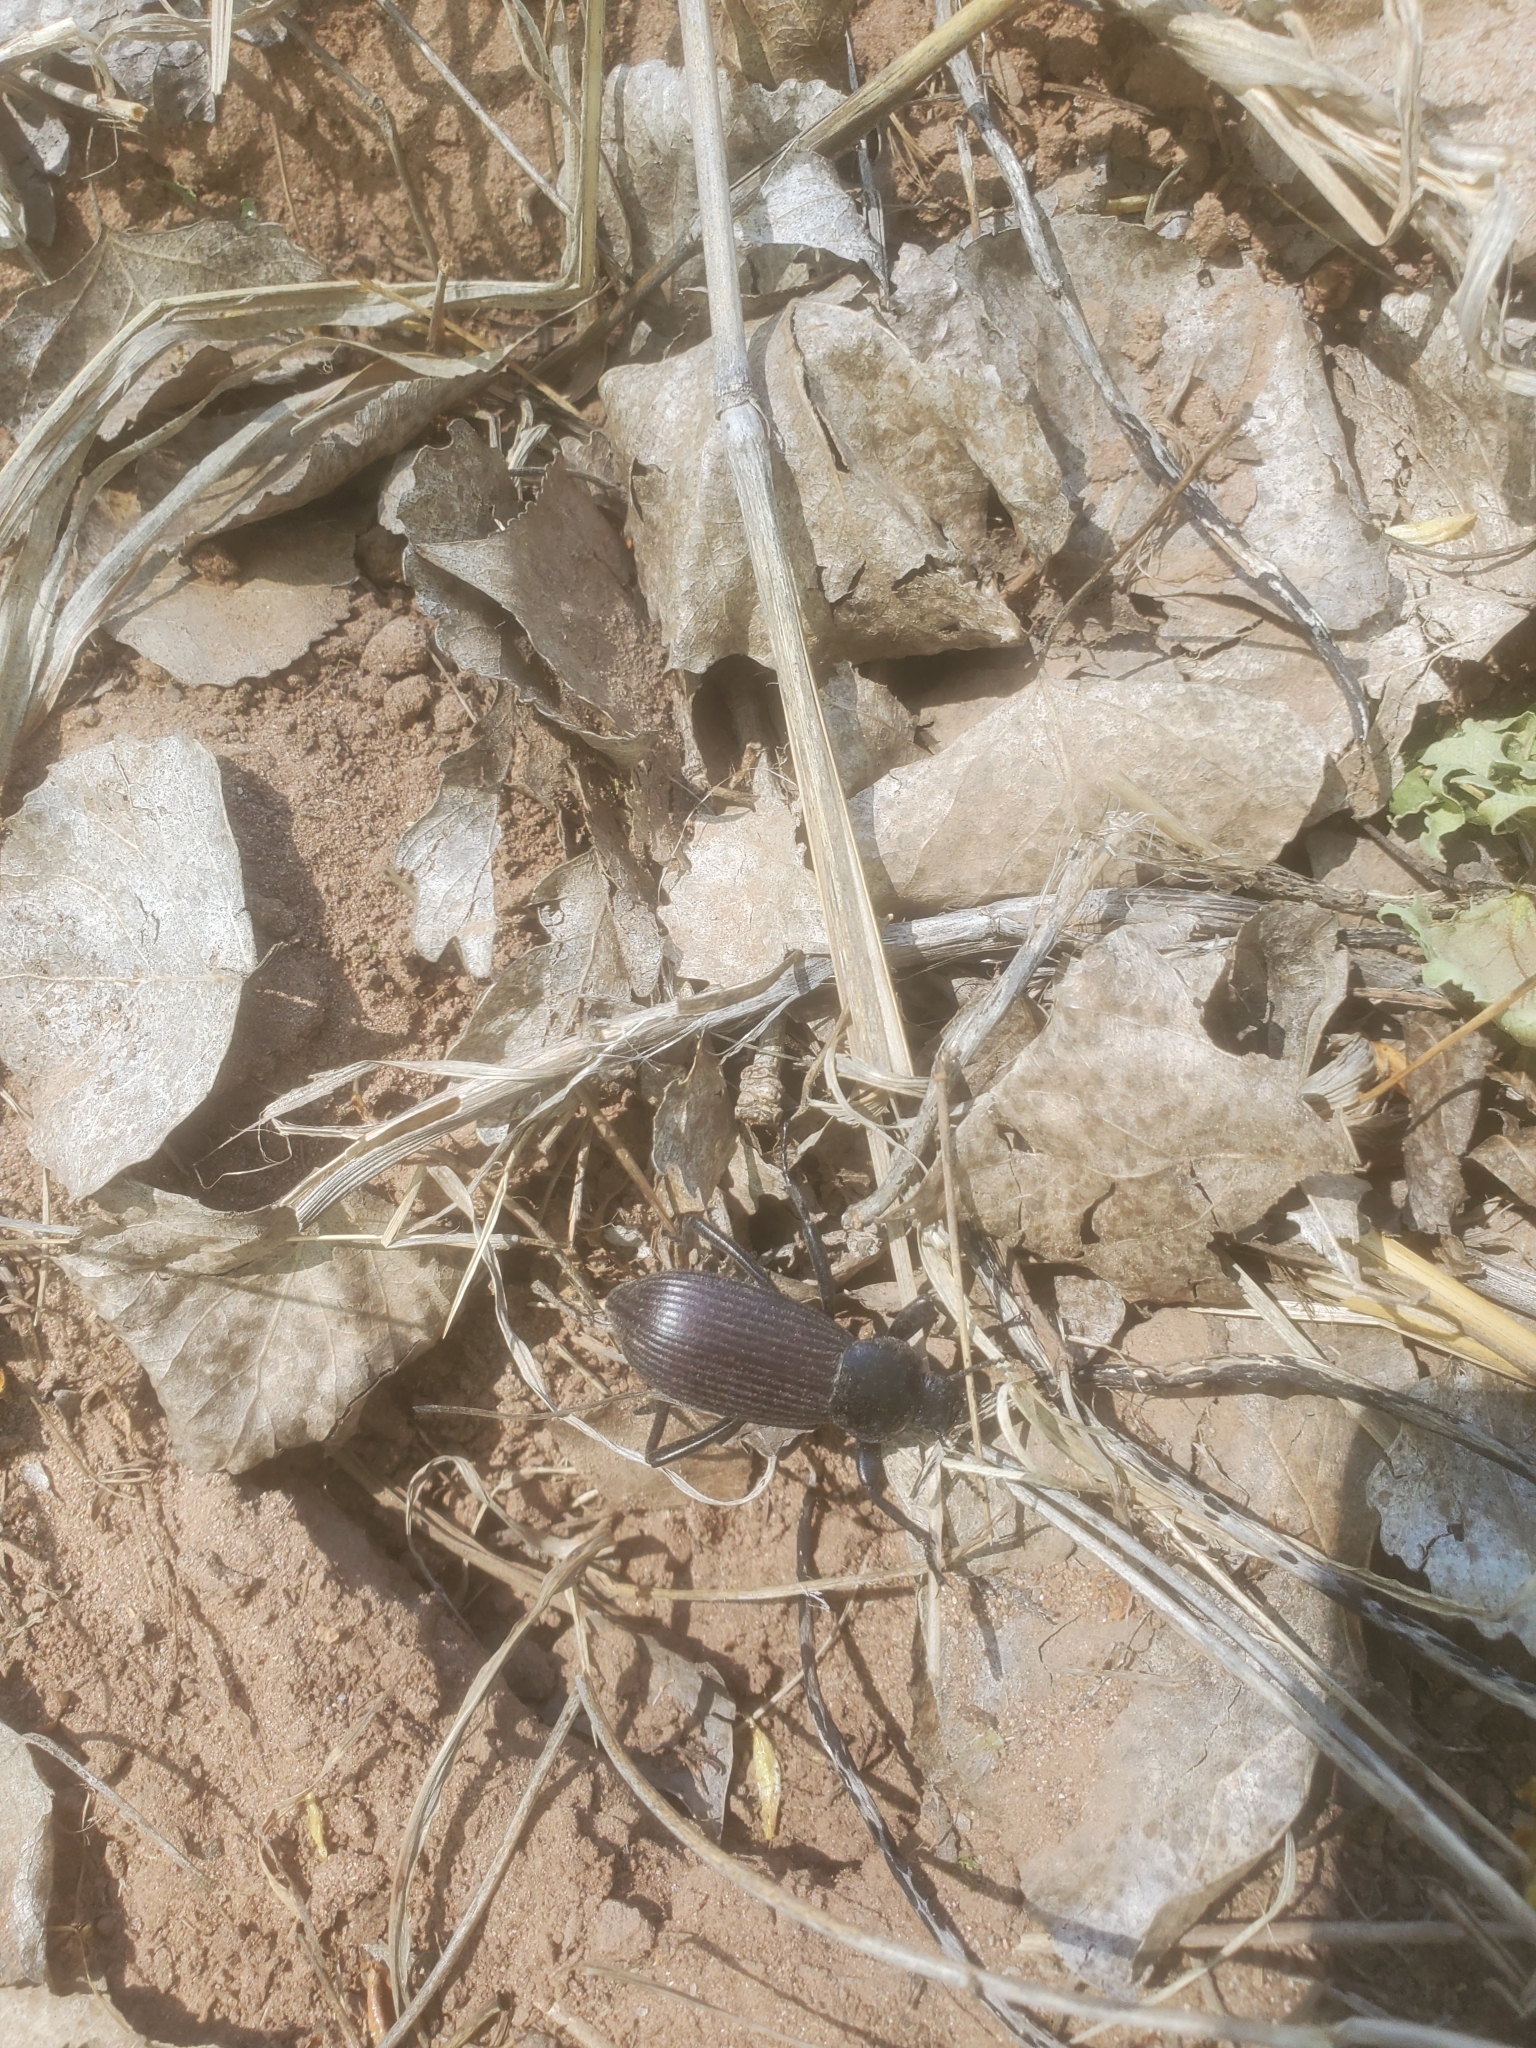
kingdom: Animalia
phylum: Arthropoda
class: Insecta
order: Coleoptera
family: Tenebrionidae
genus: Eleodes
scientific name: Eleodes obscura
